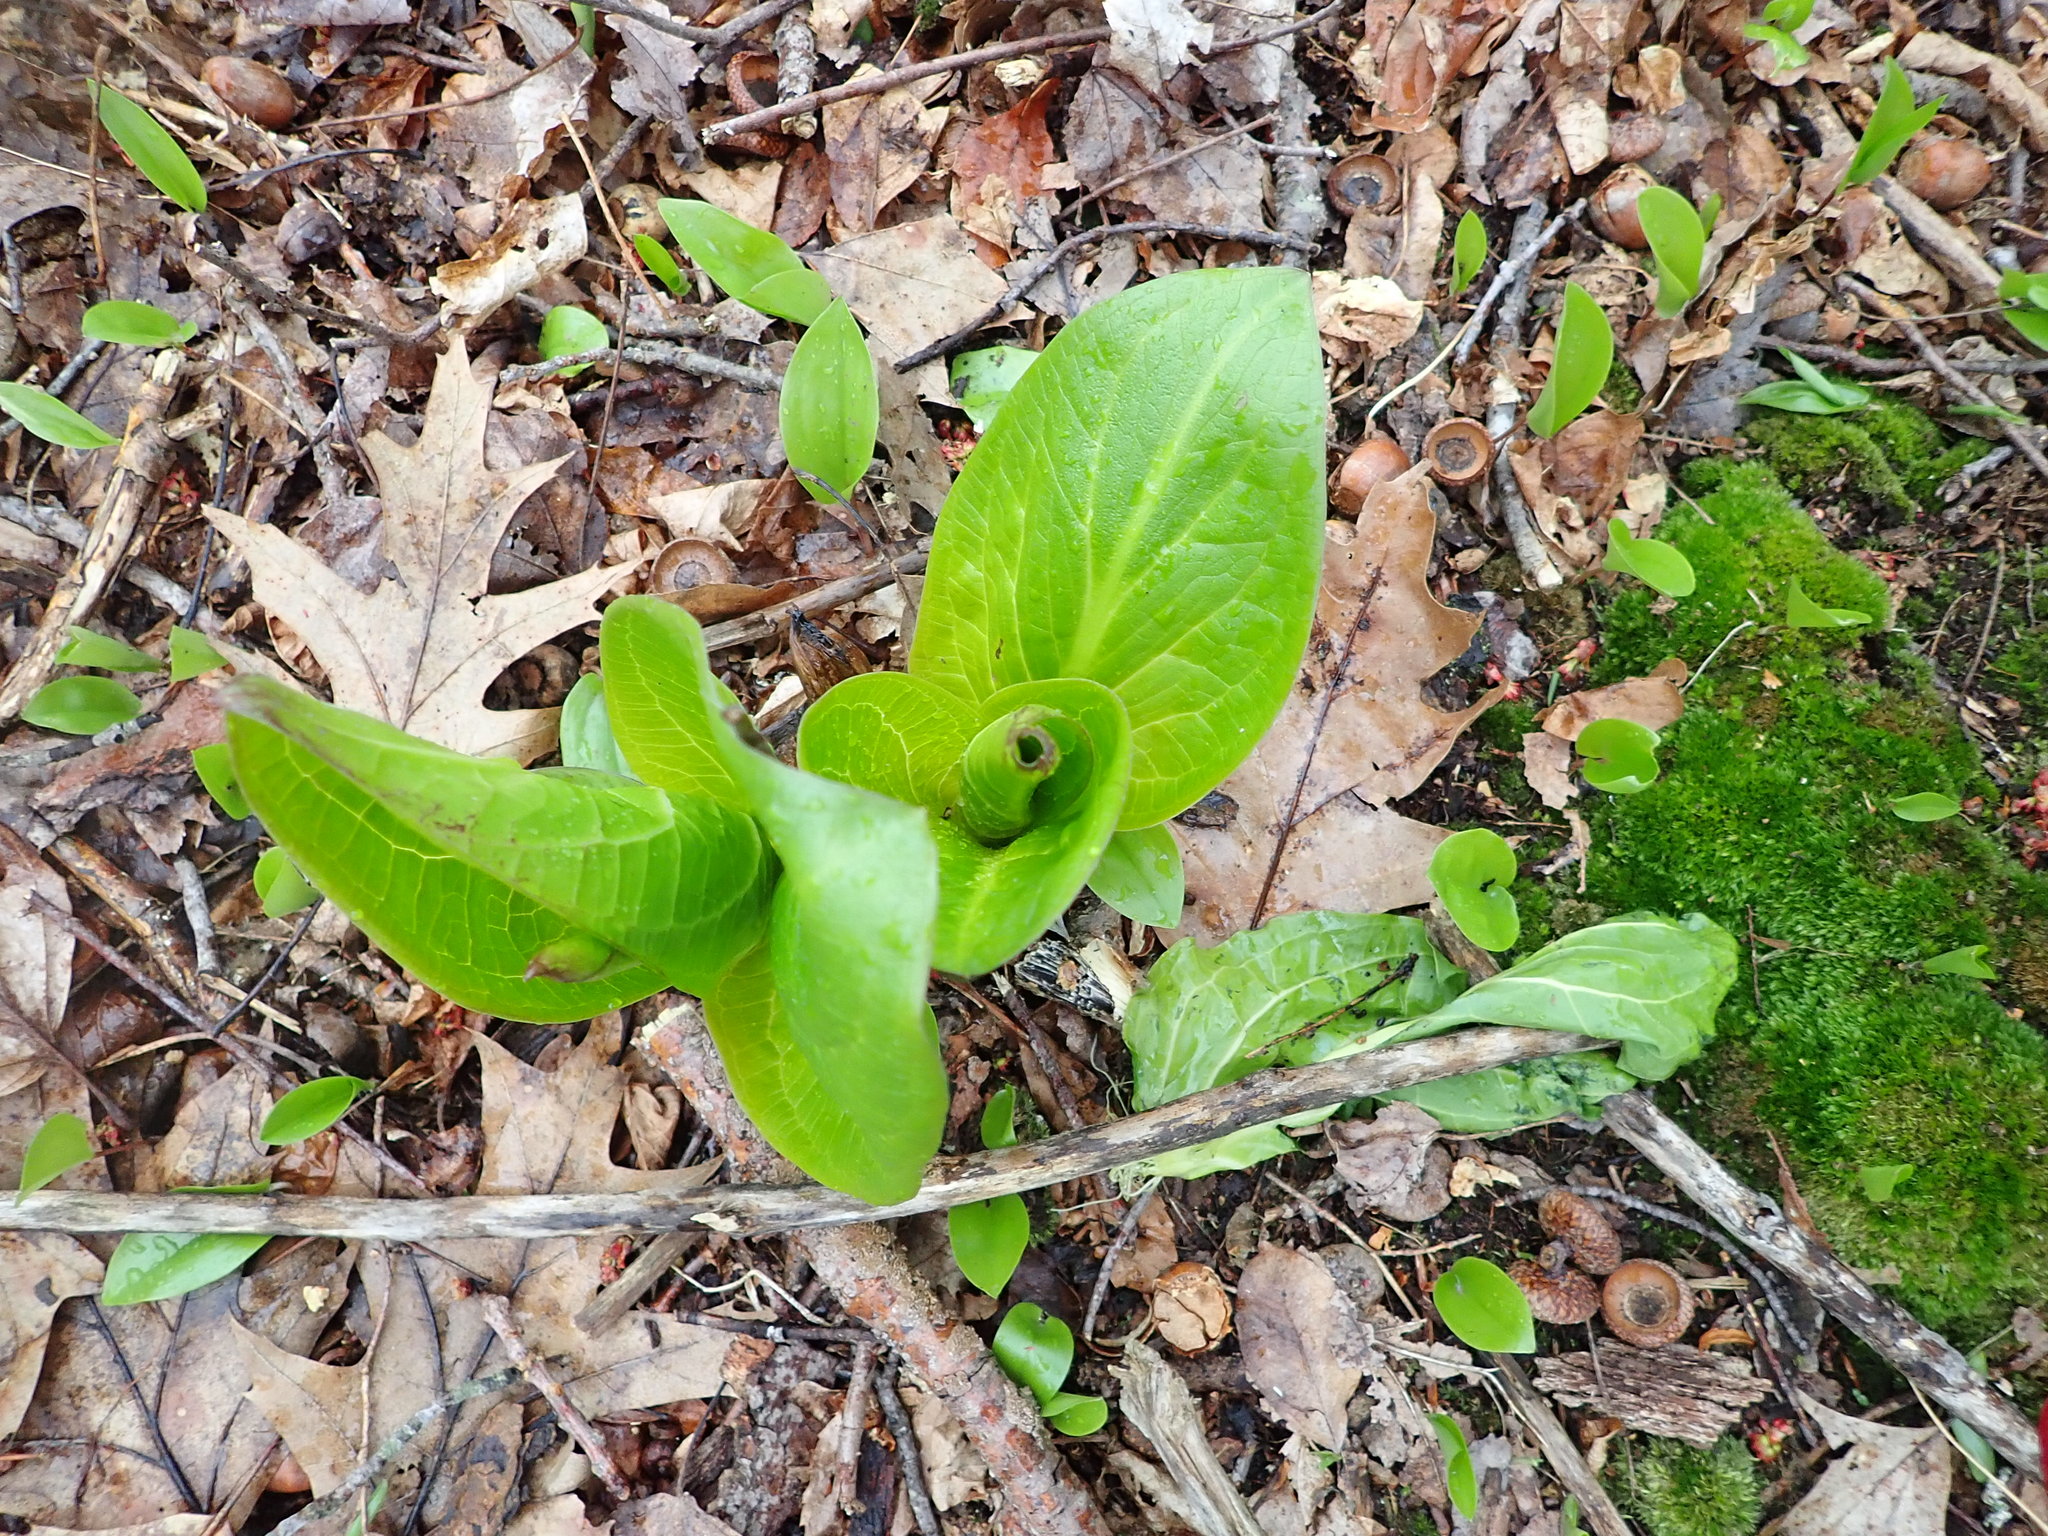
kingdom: Plantae
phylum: Tracheophyta
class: Liliopsida
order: Alismatales
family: Araceae
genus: Symplocarpus
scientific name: Symplocarpus foetidus
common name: Eastern skunk cabbage
